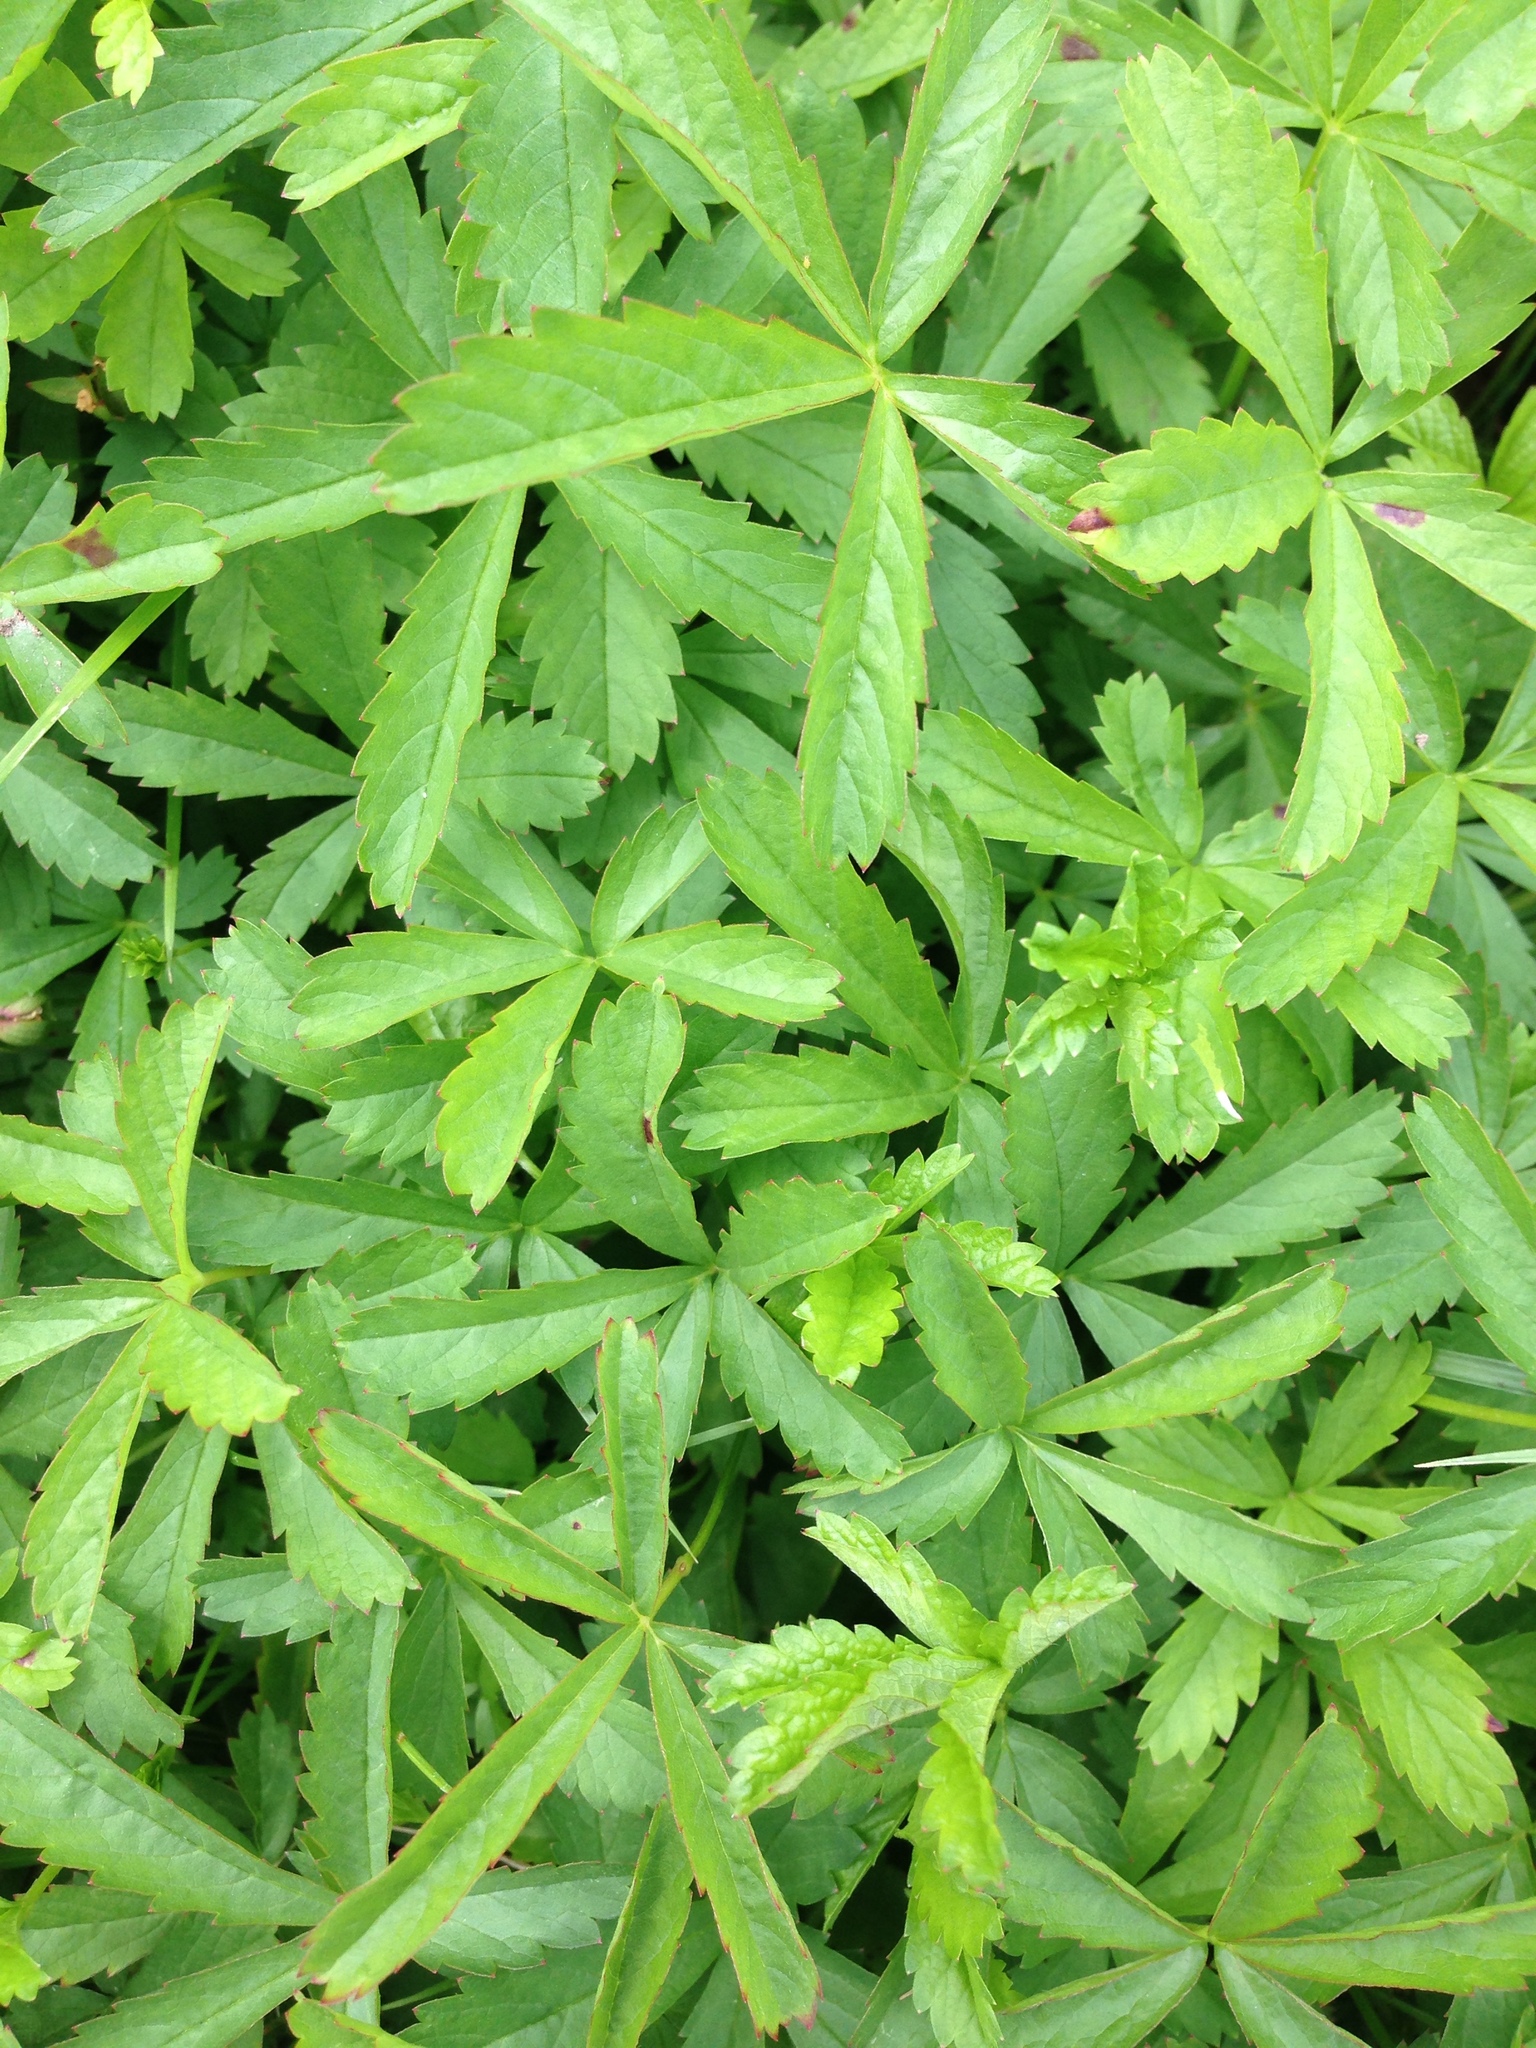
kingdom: Plantae
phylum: Tracheophyta
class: Magnoliopsida
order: Rosales
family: Rosaceae
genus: Potentilla
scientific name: Potentilla reptans
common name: Creeping cinquefoil
